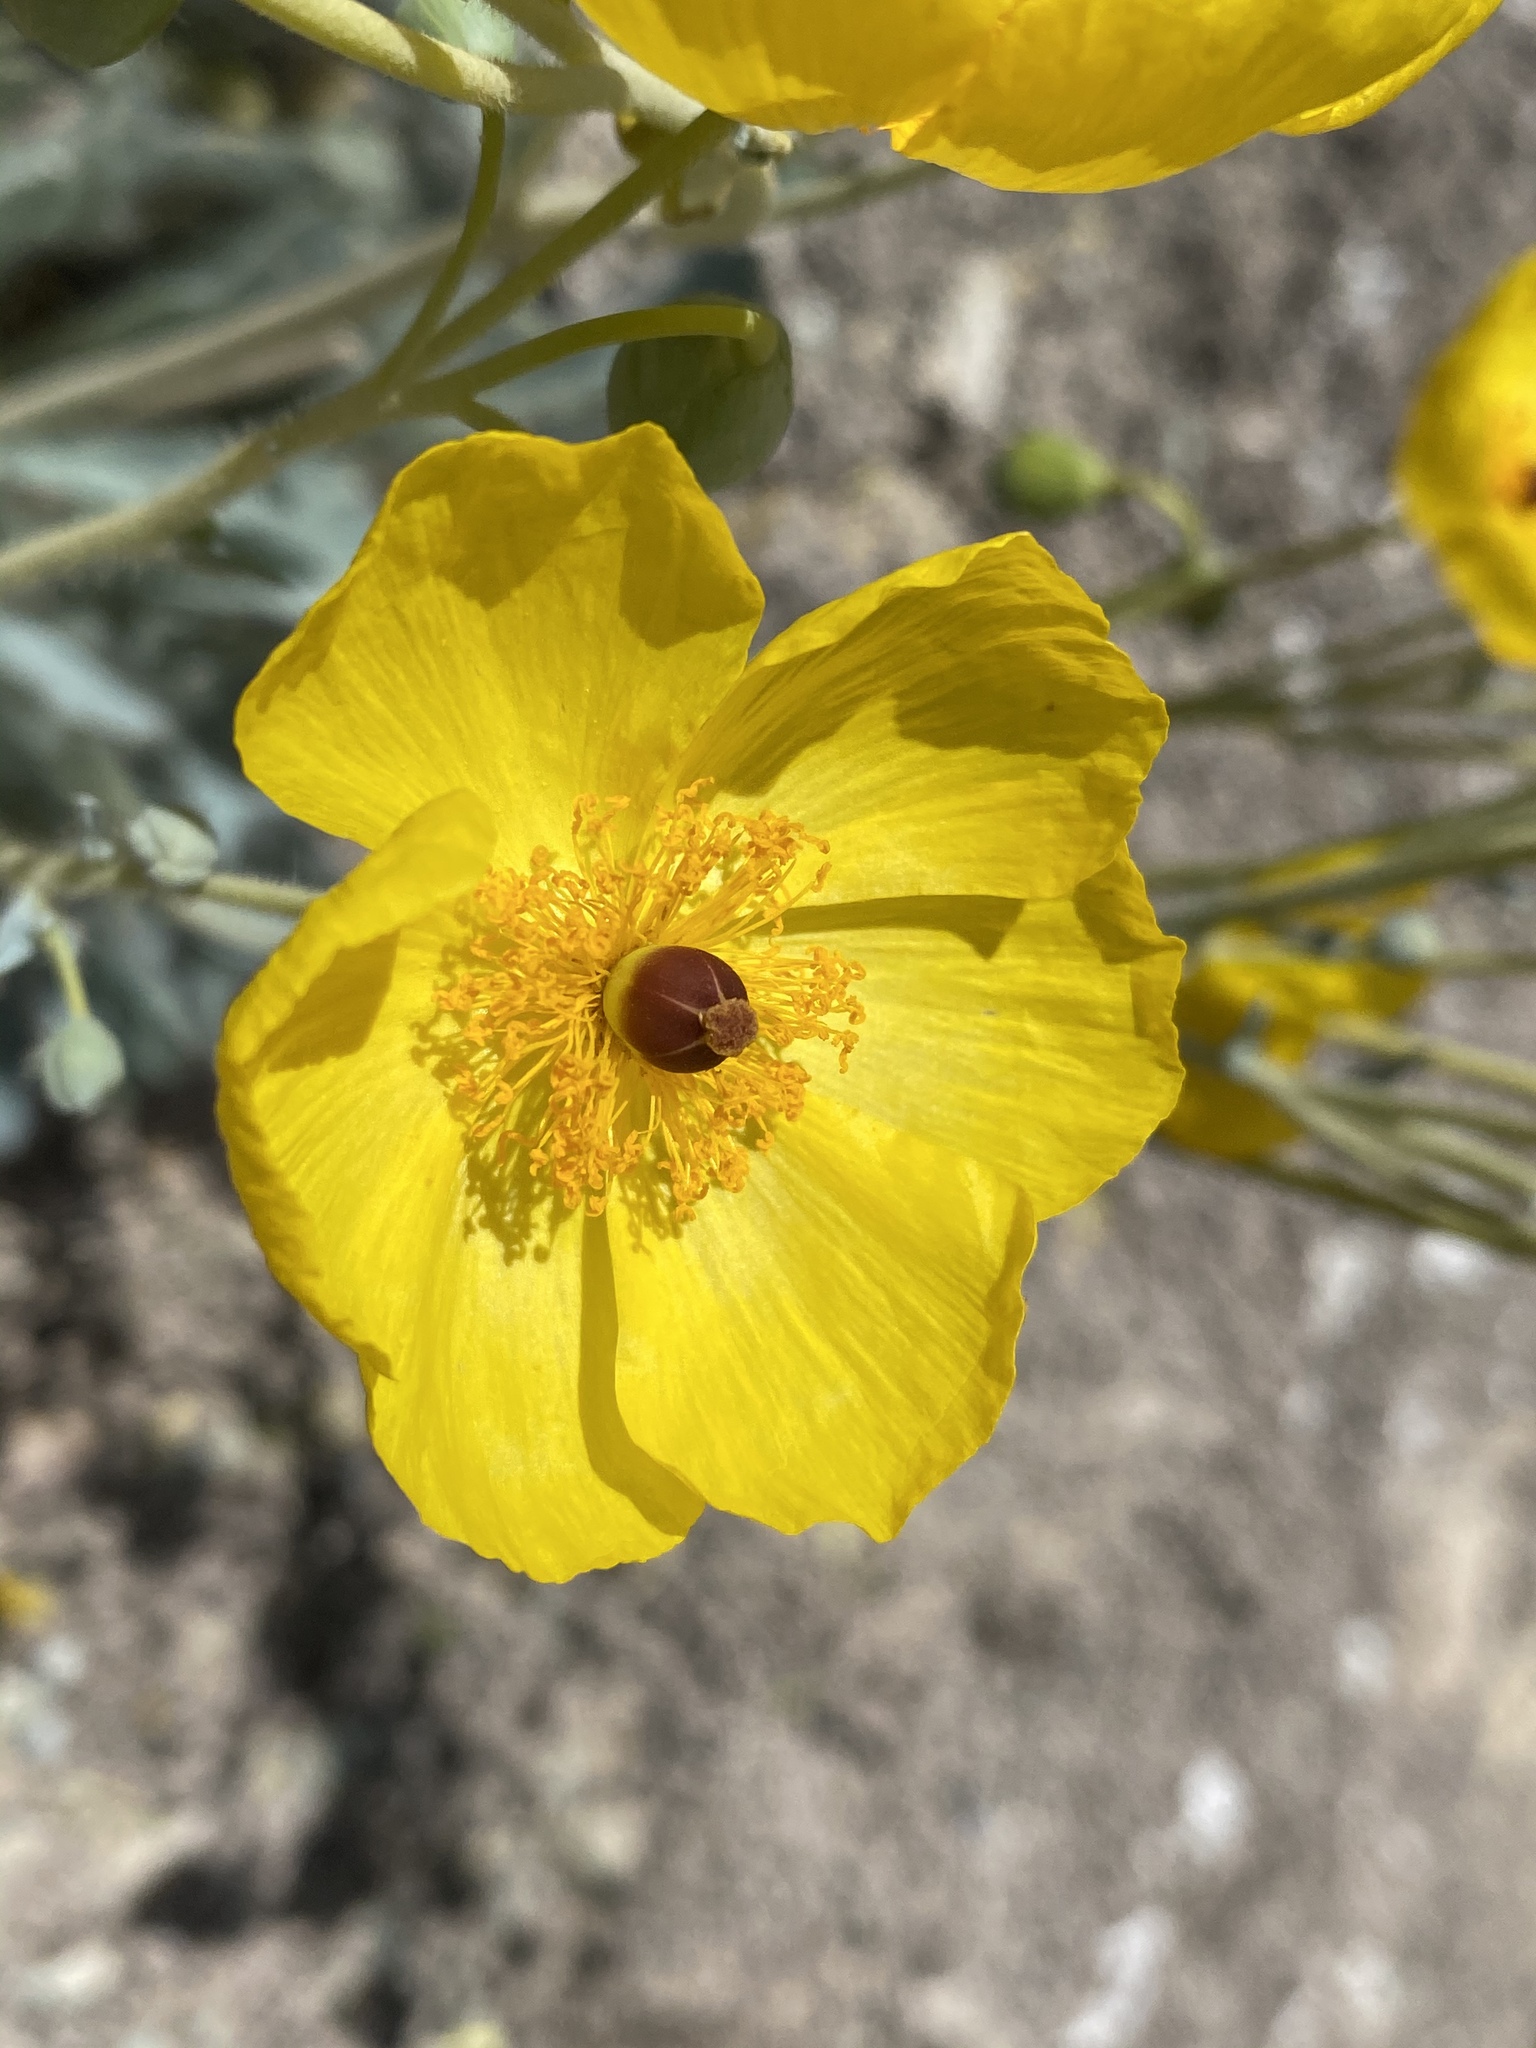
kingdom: Plantae
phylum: Tracheophyta
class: Magnoliopsida
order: Ranunculales
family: Papaveraceae
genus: Arctomecon
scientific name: Arctomecon californicum
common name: Golden bearclaw-poppy
